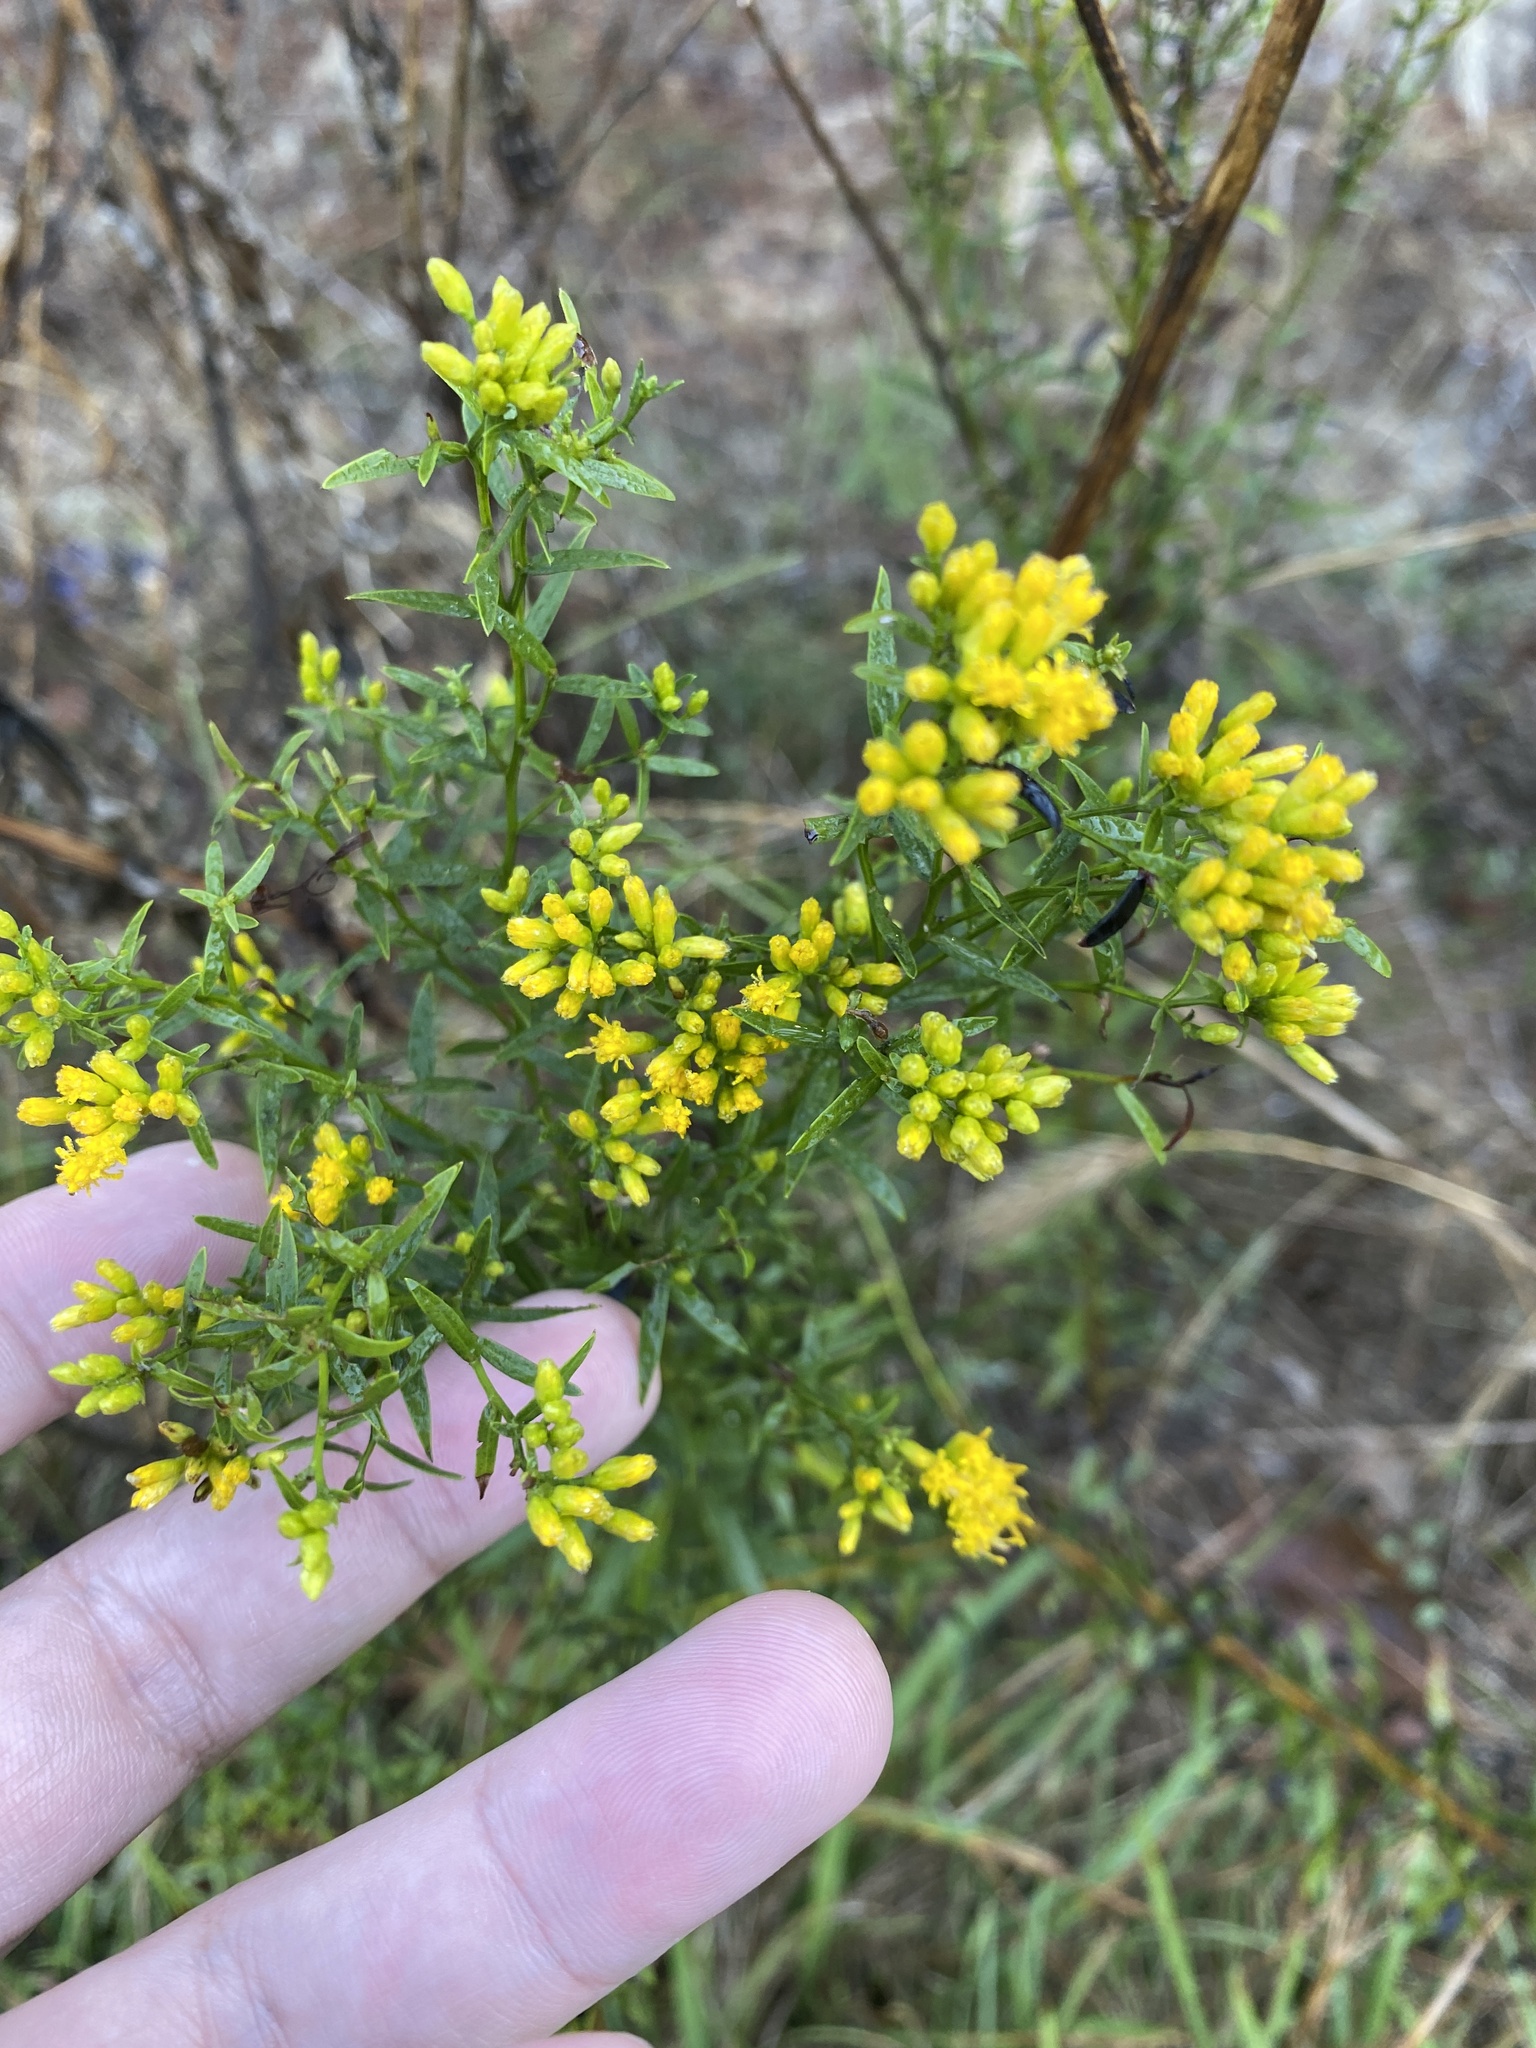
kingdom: Plantae
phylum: Tracheophyta
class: Magnoliopsida
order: Asterales
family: Asteraceae
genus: Euthamia
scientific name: Euthamia leptocephala
